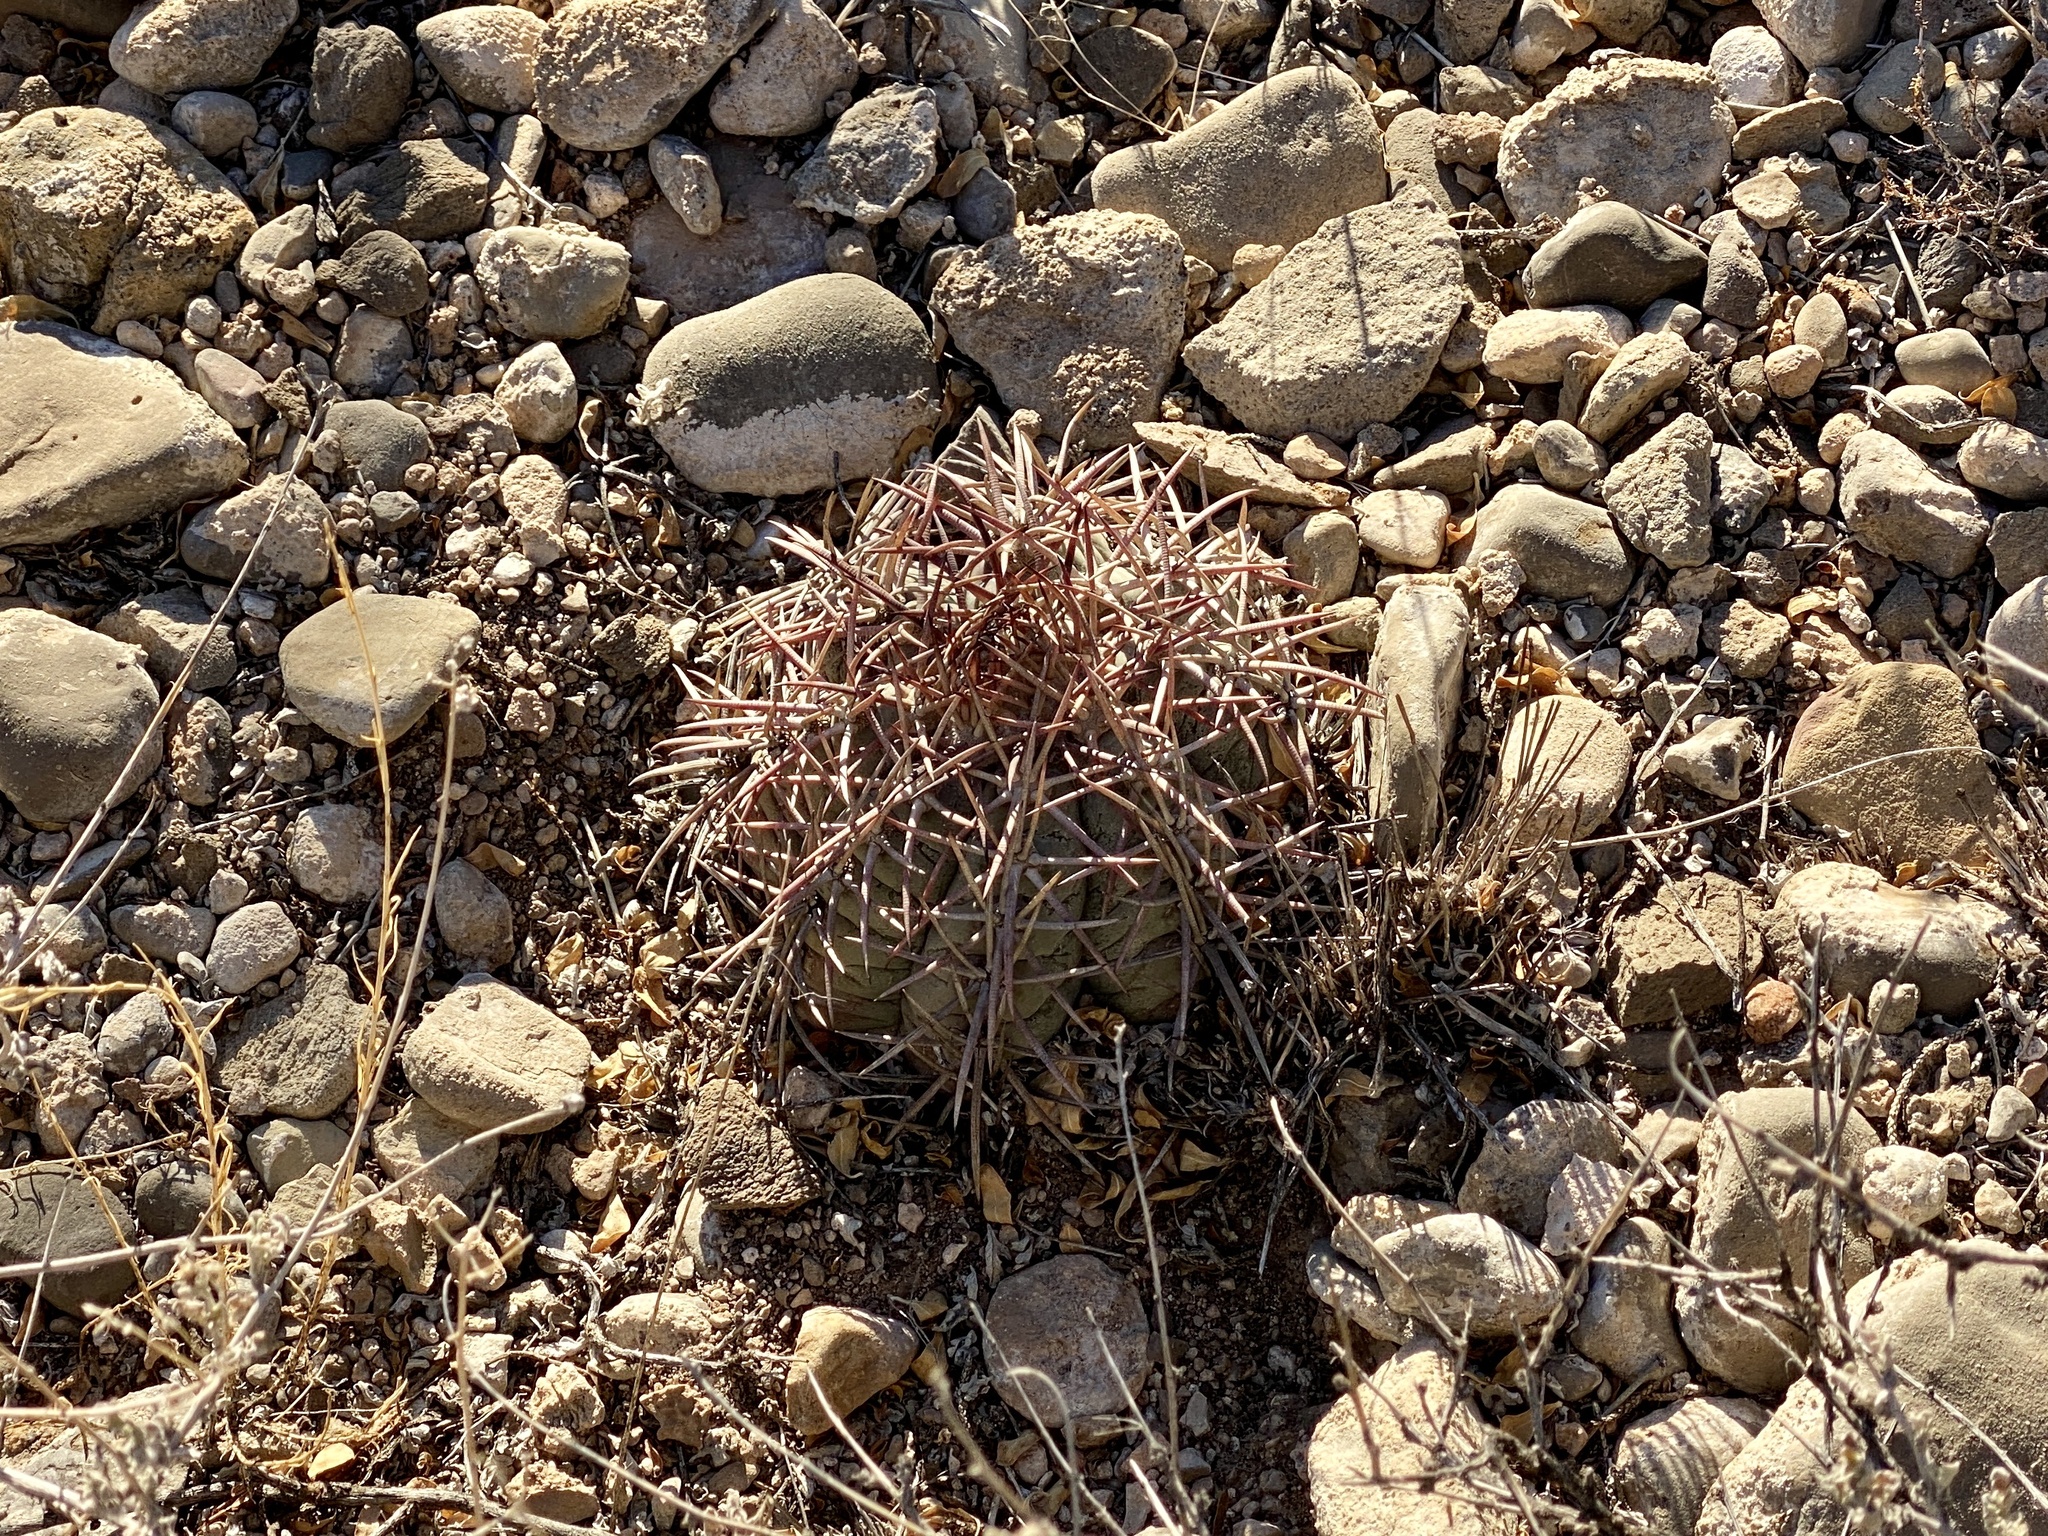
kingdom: Plantae
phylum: Tracheophyta
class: Magnoliopsida
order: Caryophyllales
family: Cactaceae
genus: Echinocactus
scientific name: Echinocactus horizonthalonius
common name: Devilshead
